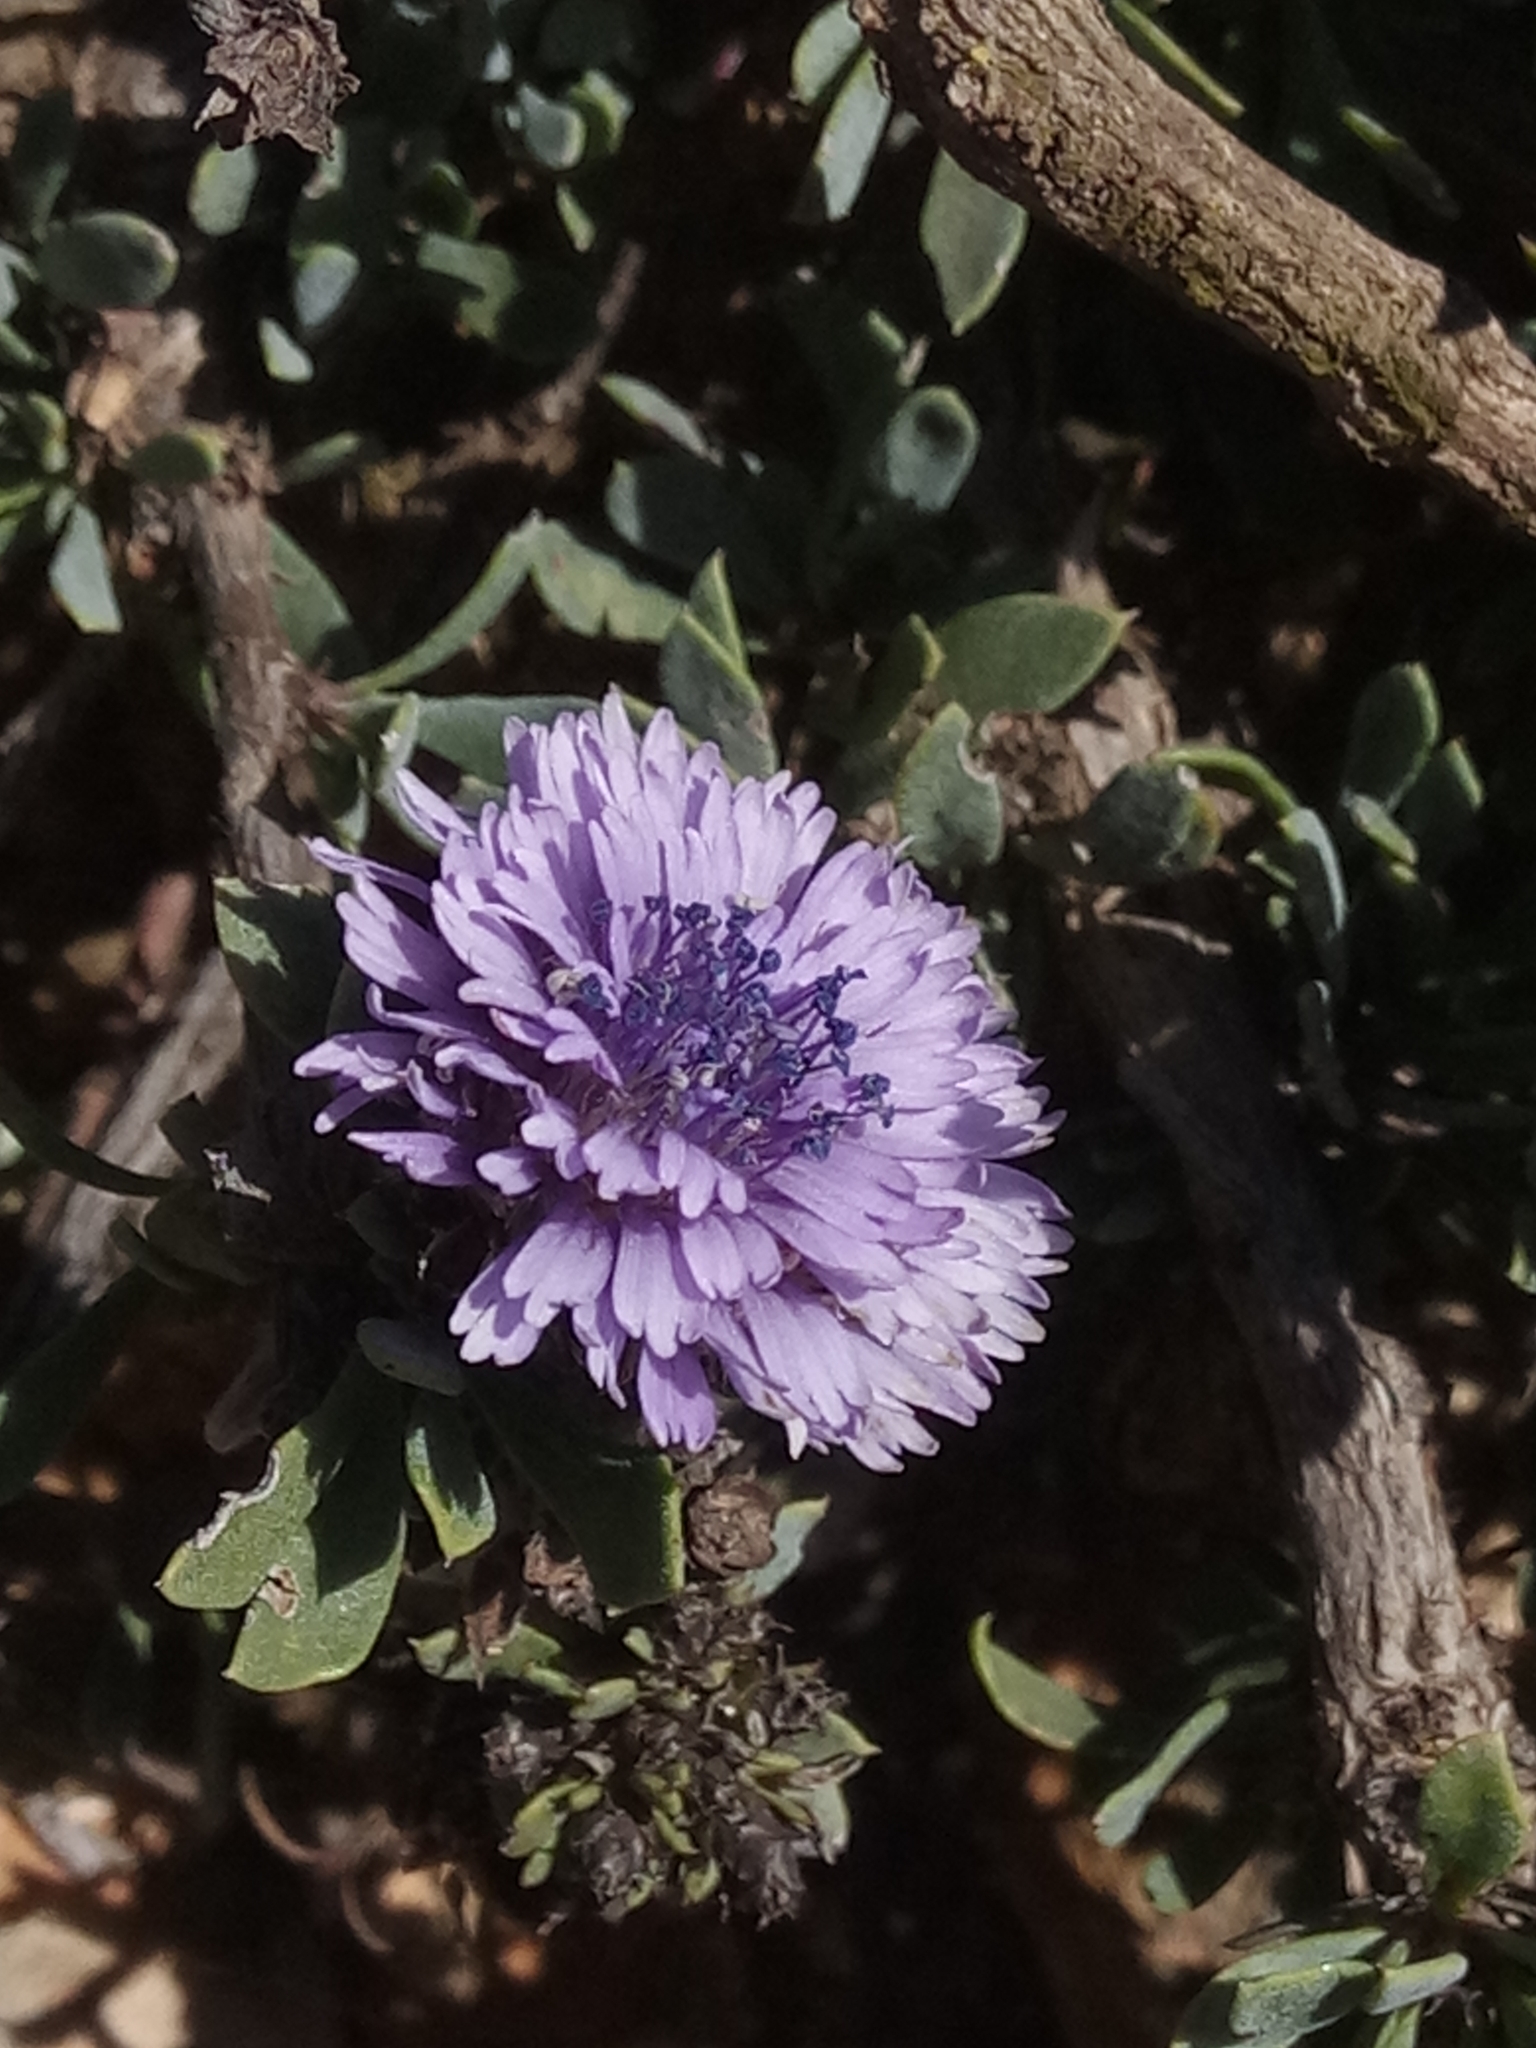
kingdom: Plantae
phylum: Tracheophyta
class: Magnoliopsida
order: Lamiales
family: Plantaginaceae
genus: Globularia
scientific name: Globularia alypum
